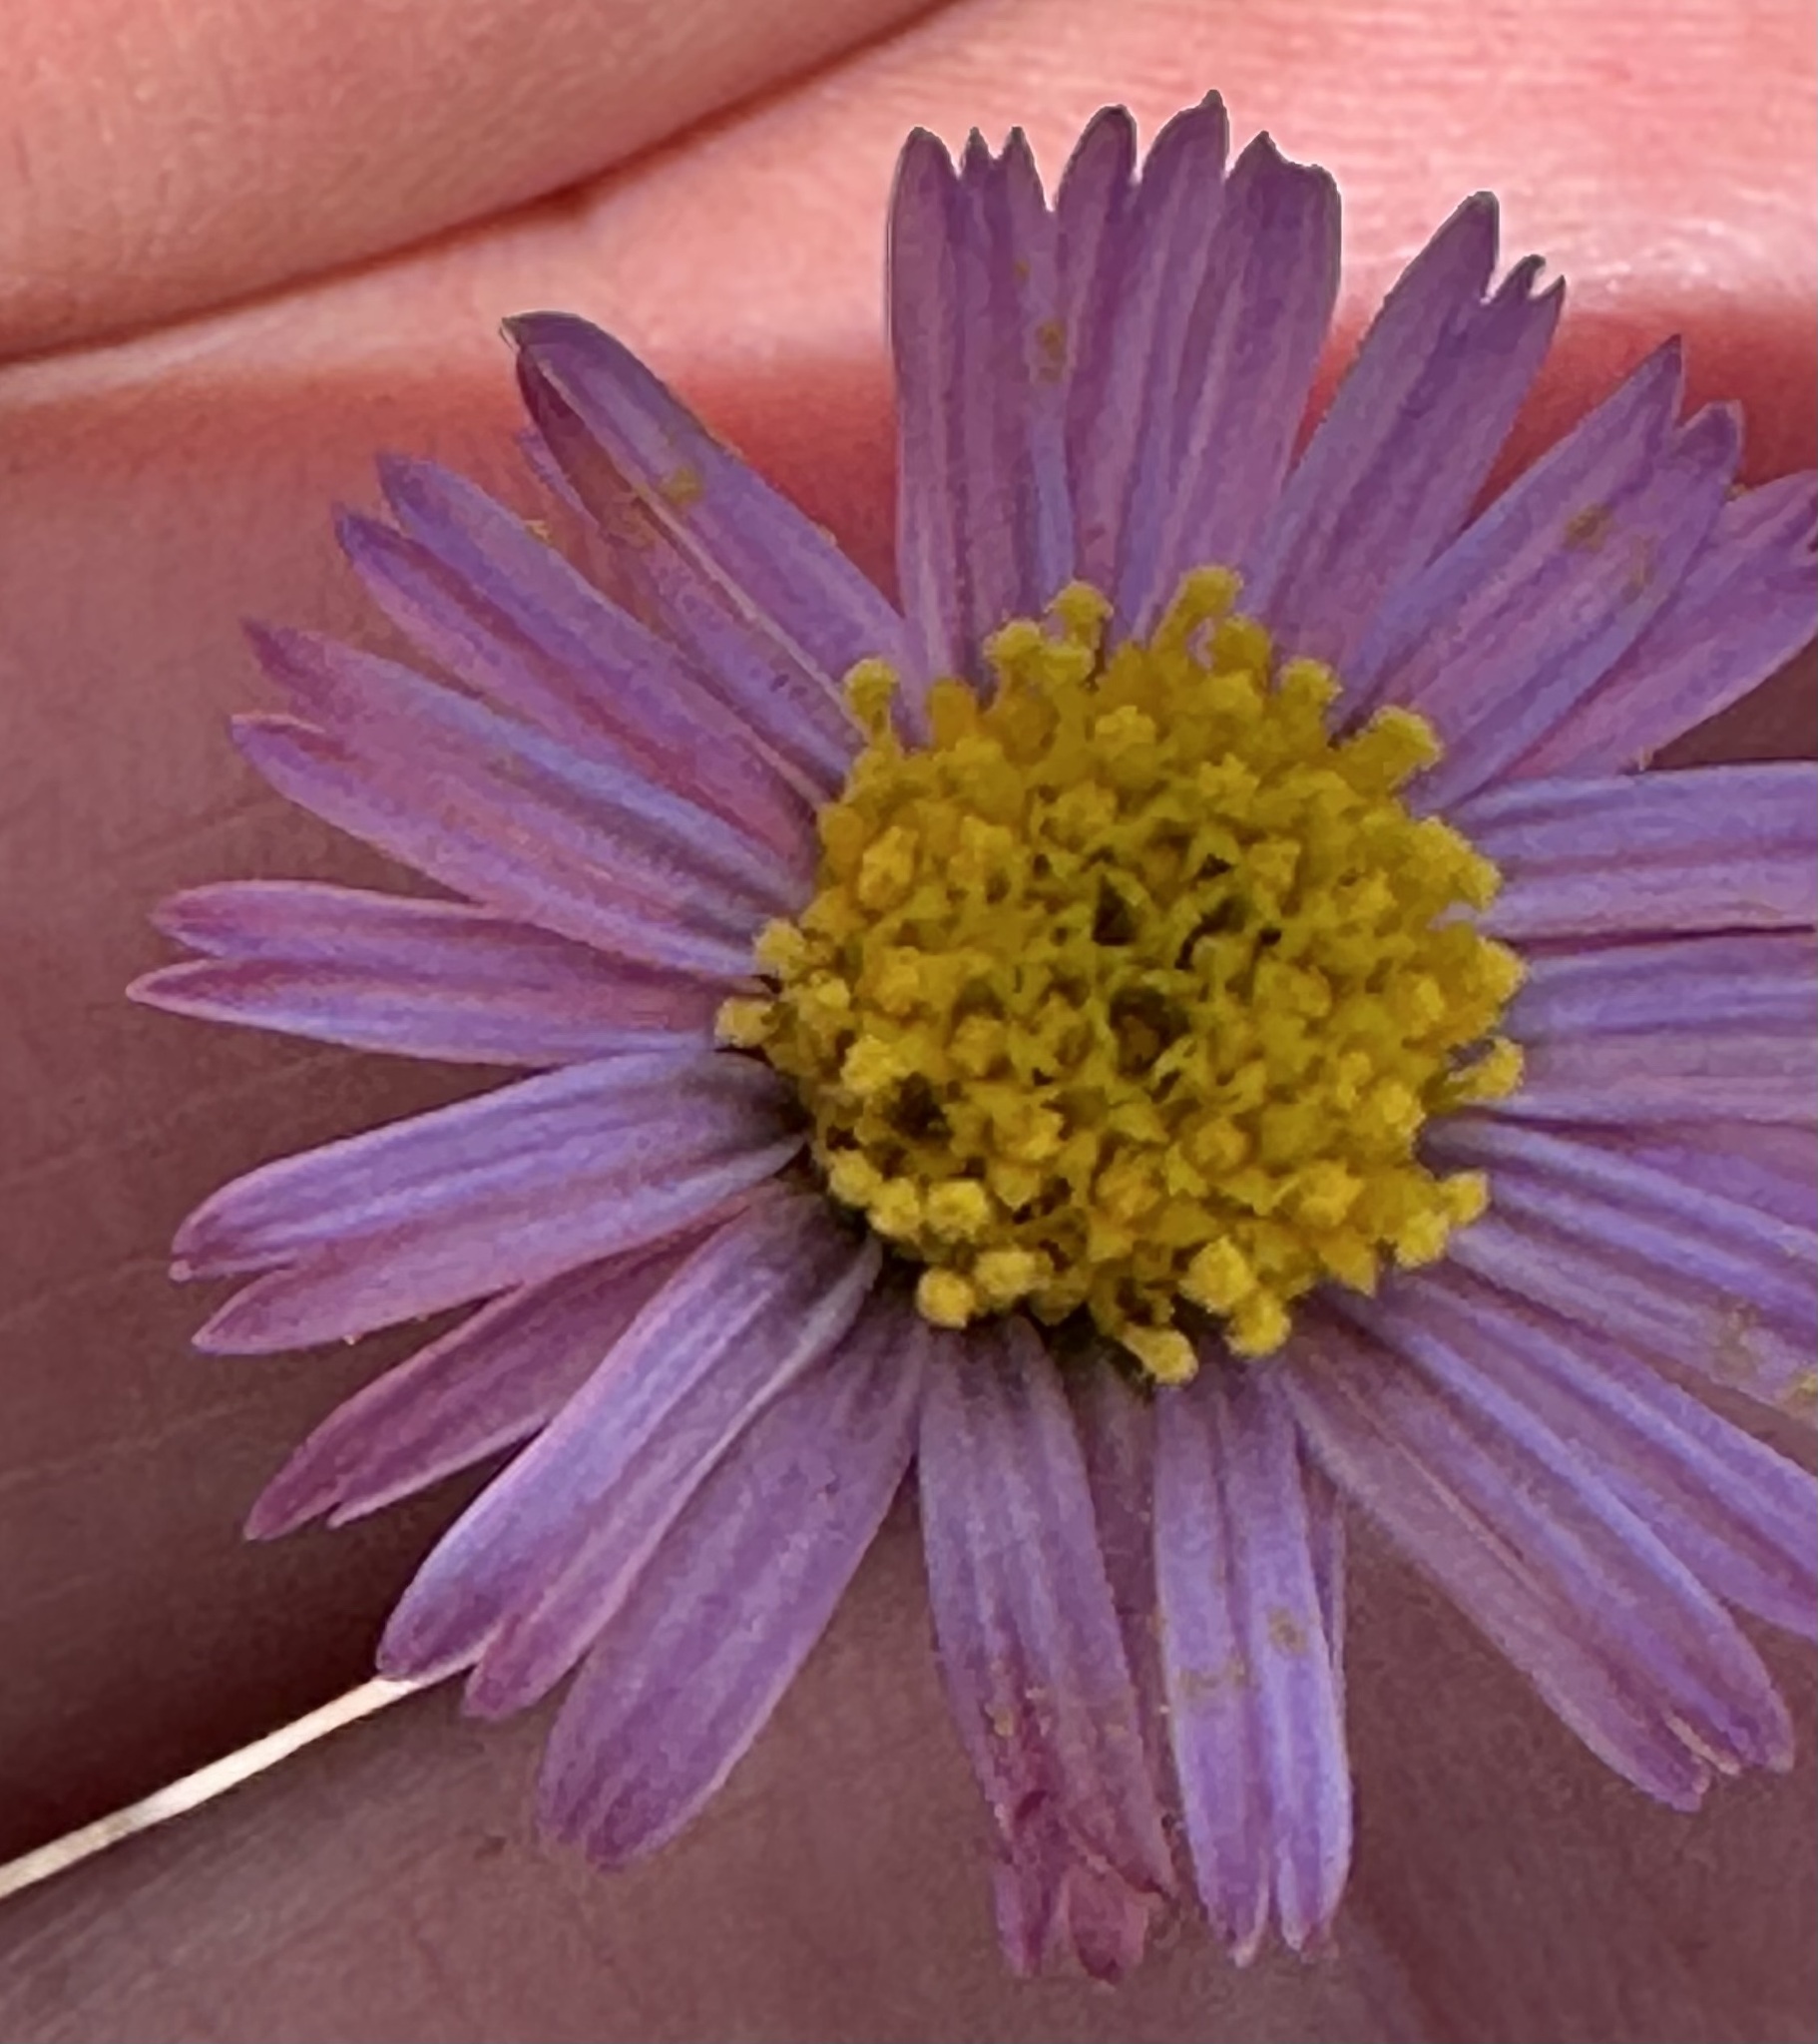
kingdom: Plantae
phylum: Tracheophyta
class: Magnoliopsida
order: Asterales
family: Asteraceae
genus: Corethrogyne
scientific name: Corethrogyne filaginifolia
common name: Sand-aster
